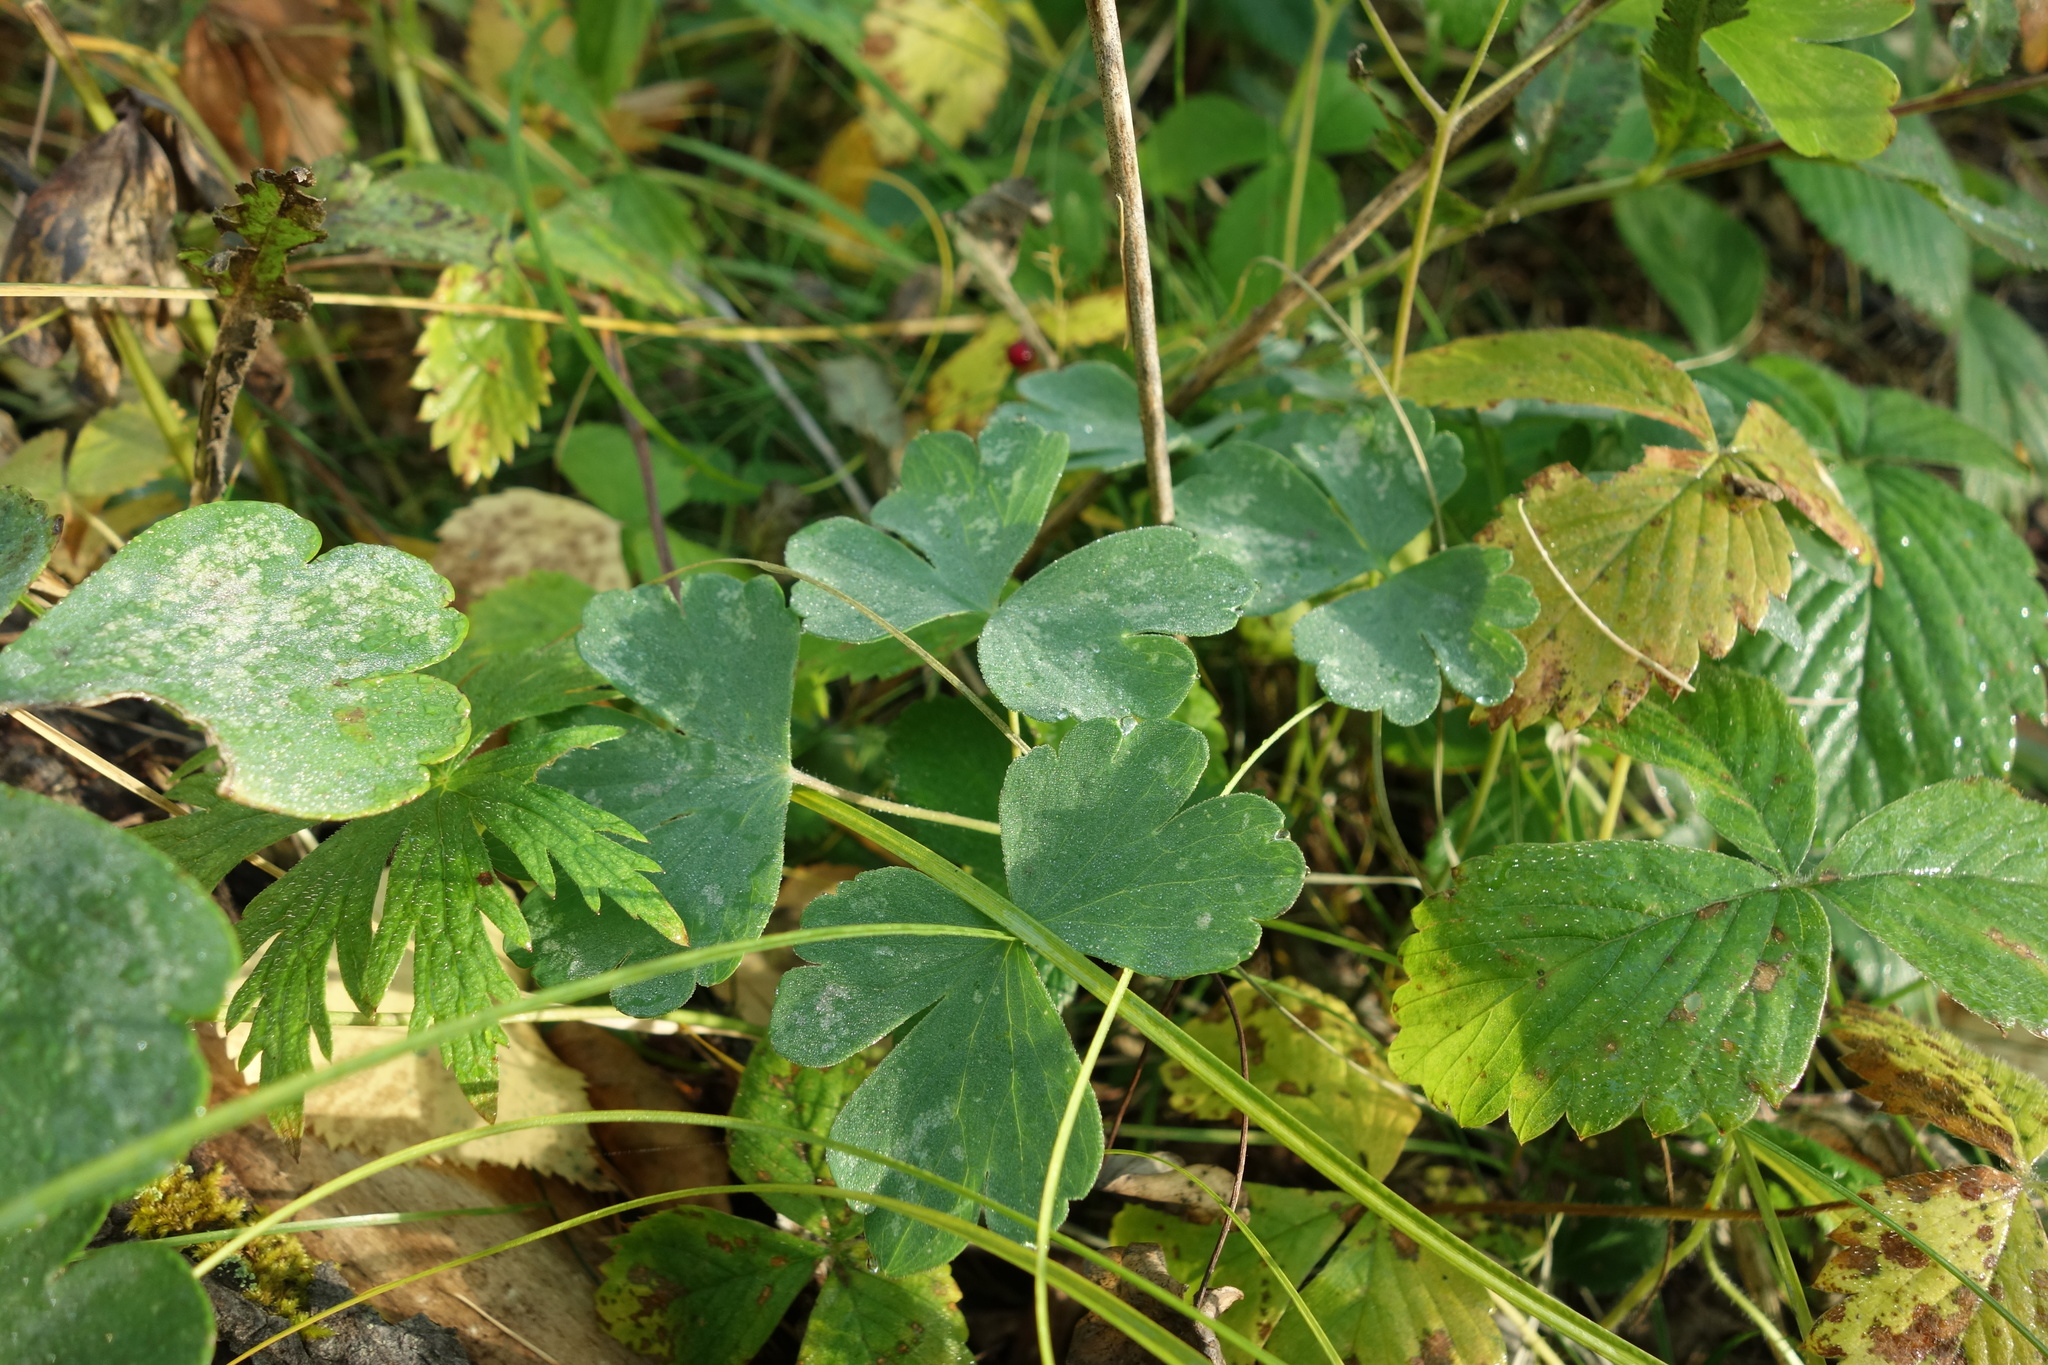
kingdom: Plantae
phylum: Tracheophyta
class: Magnoliopsida
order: Ranunculales
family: Ranunculaceae
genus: Aquilegia
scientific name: Aquilegia sibirica
